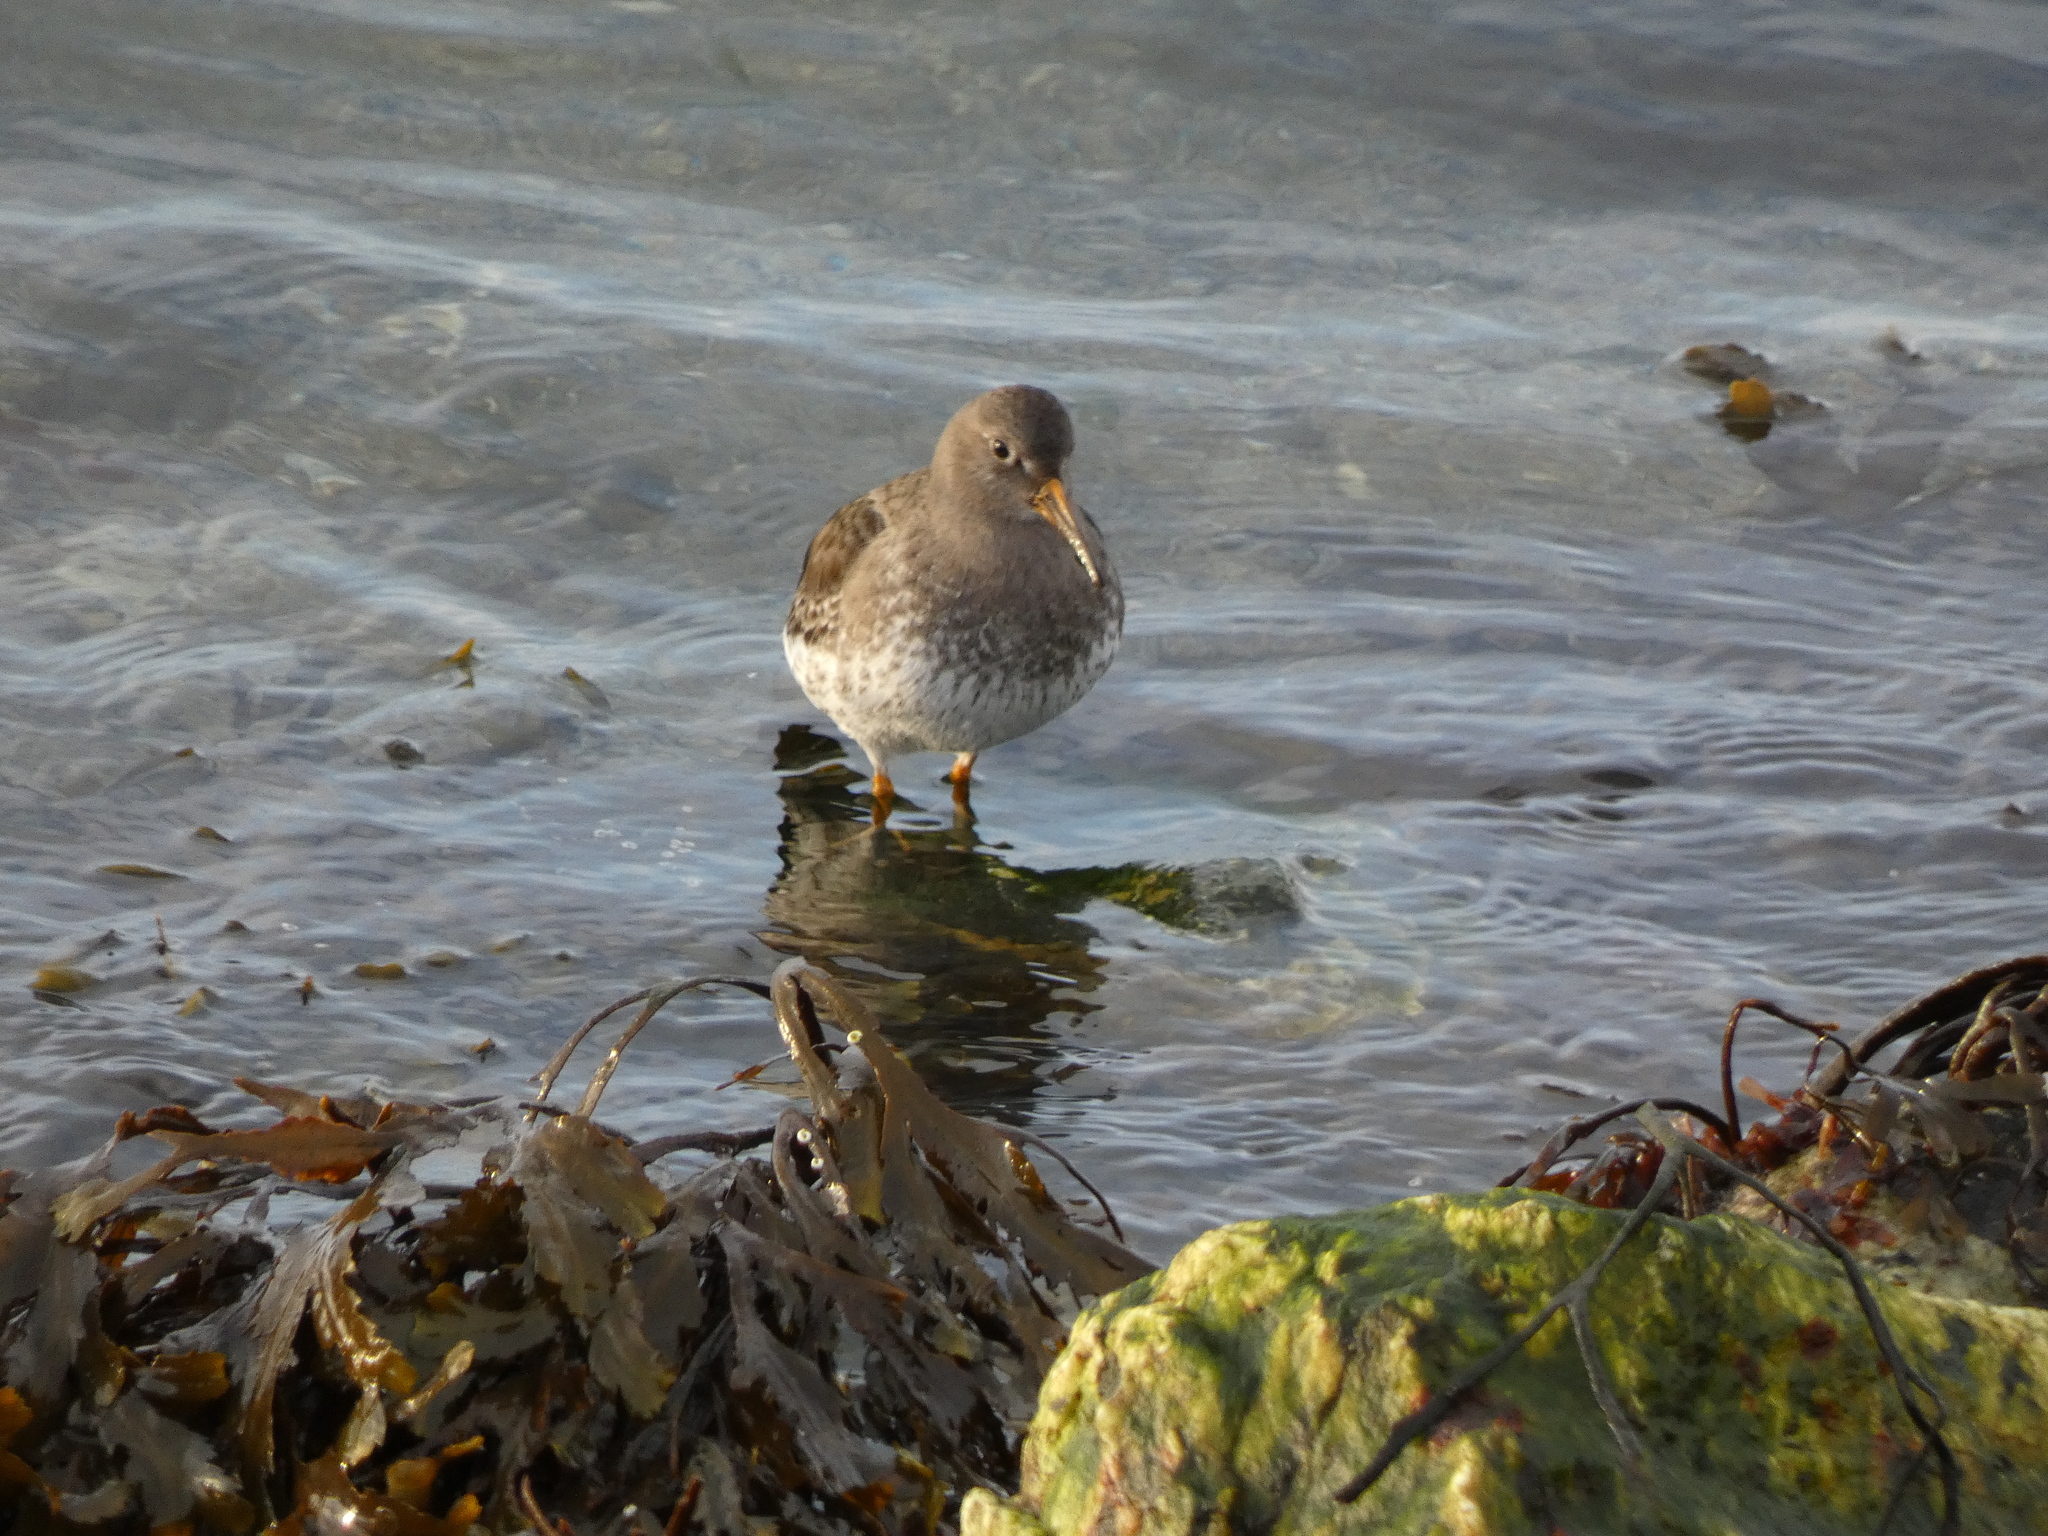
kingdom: Animalia
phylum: Chordata
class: Aves
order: Charadriiformes
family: Scolopacidae
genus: Calidris
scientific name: Calidris maritima
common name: Purple sandpiper
